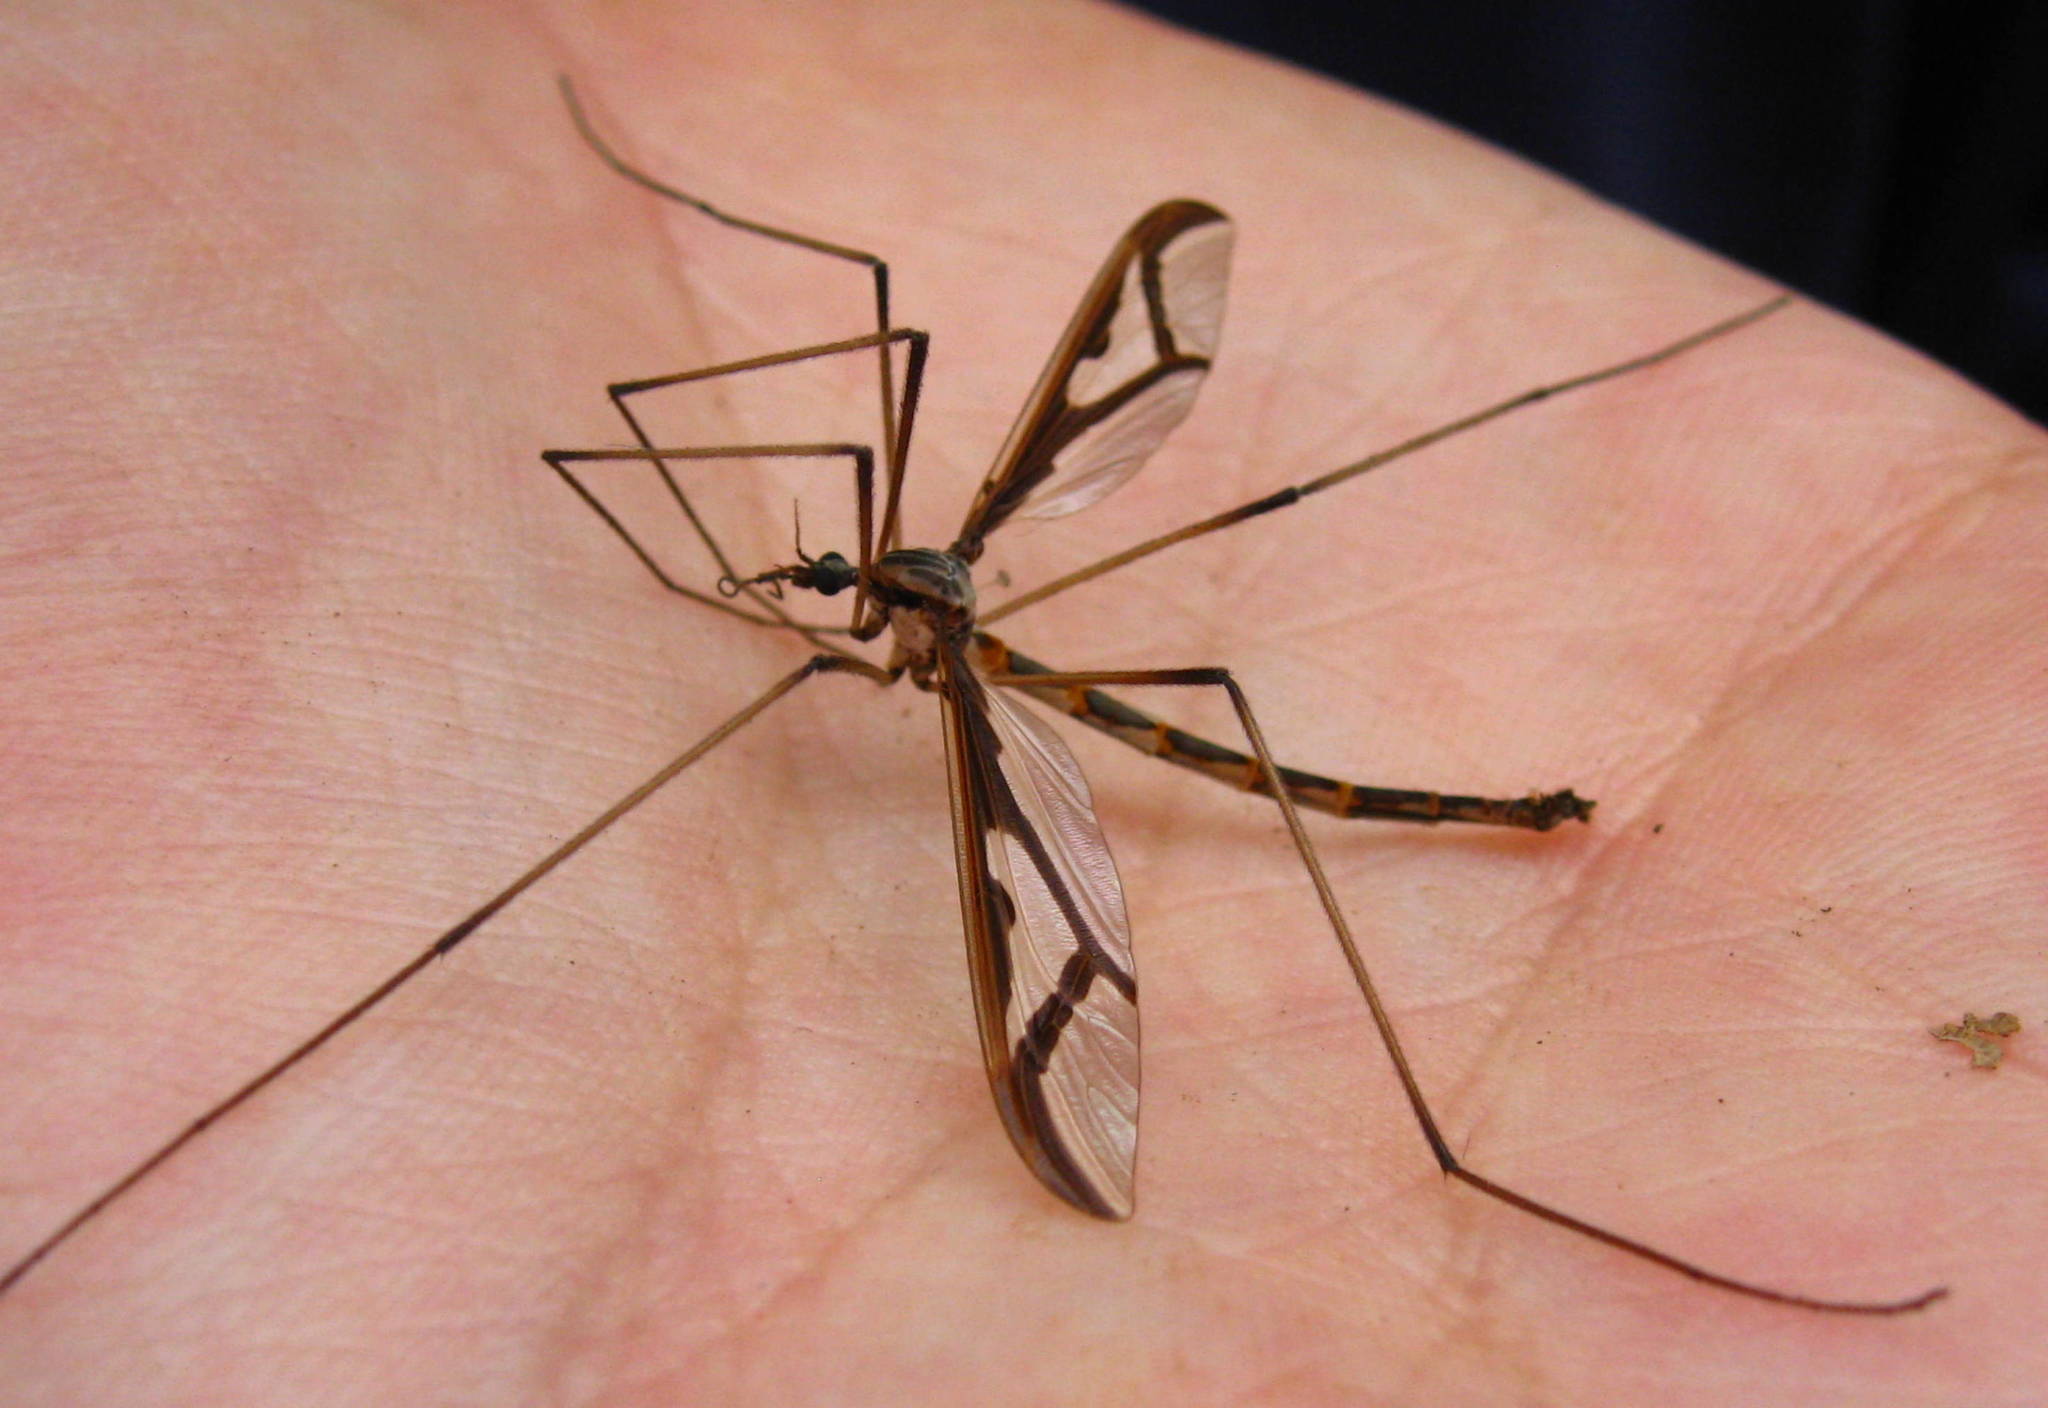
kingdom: Animalia
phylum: Arthropoda
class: Insecta
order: Diptera
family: Pediciidae
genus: Pedicia
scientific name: Pedicia albivitta
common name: Giant eastern crane fly
